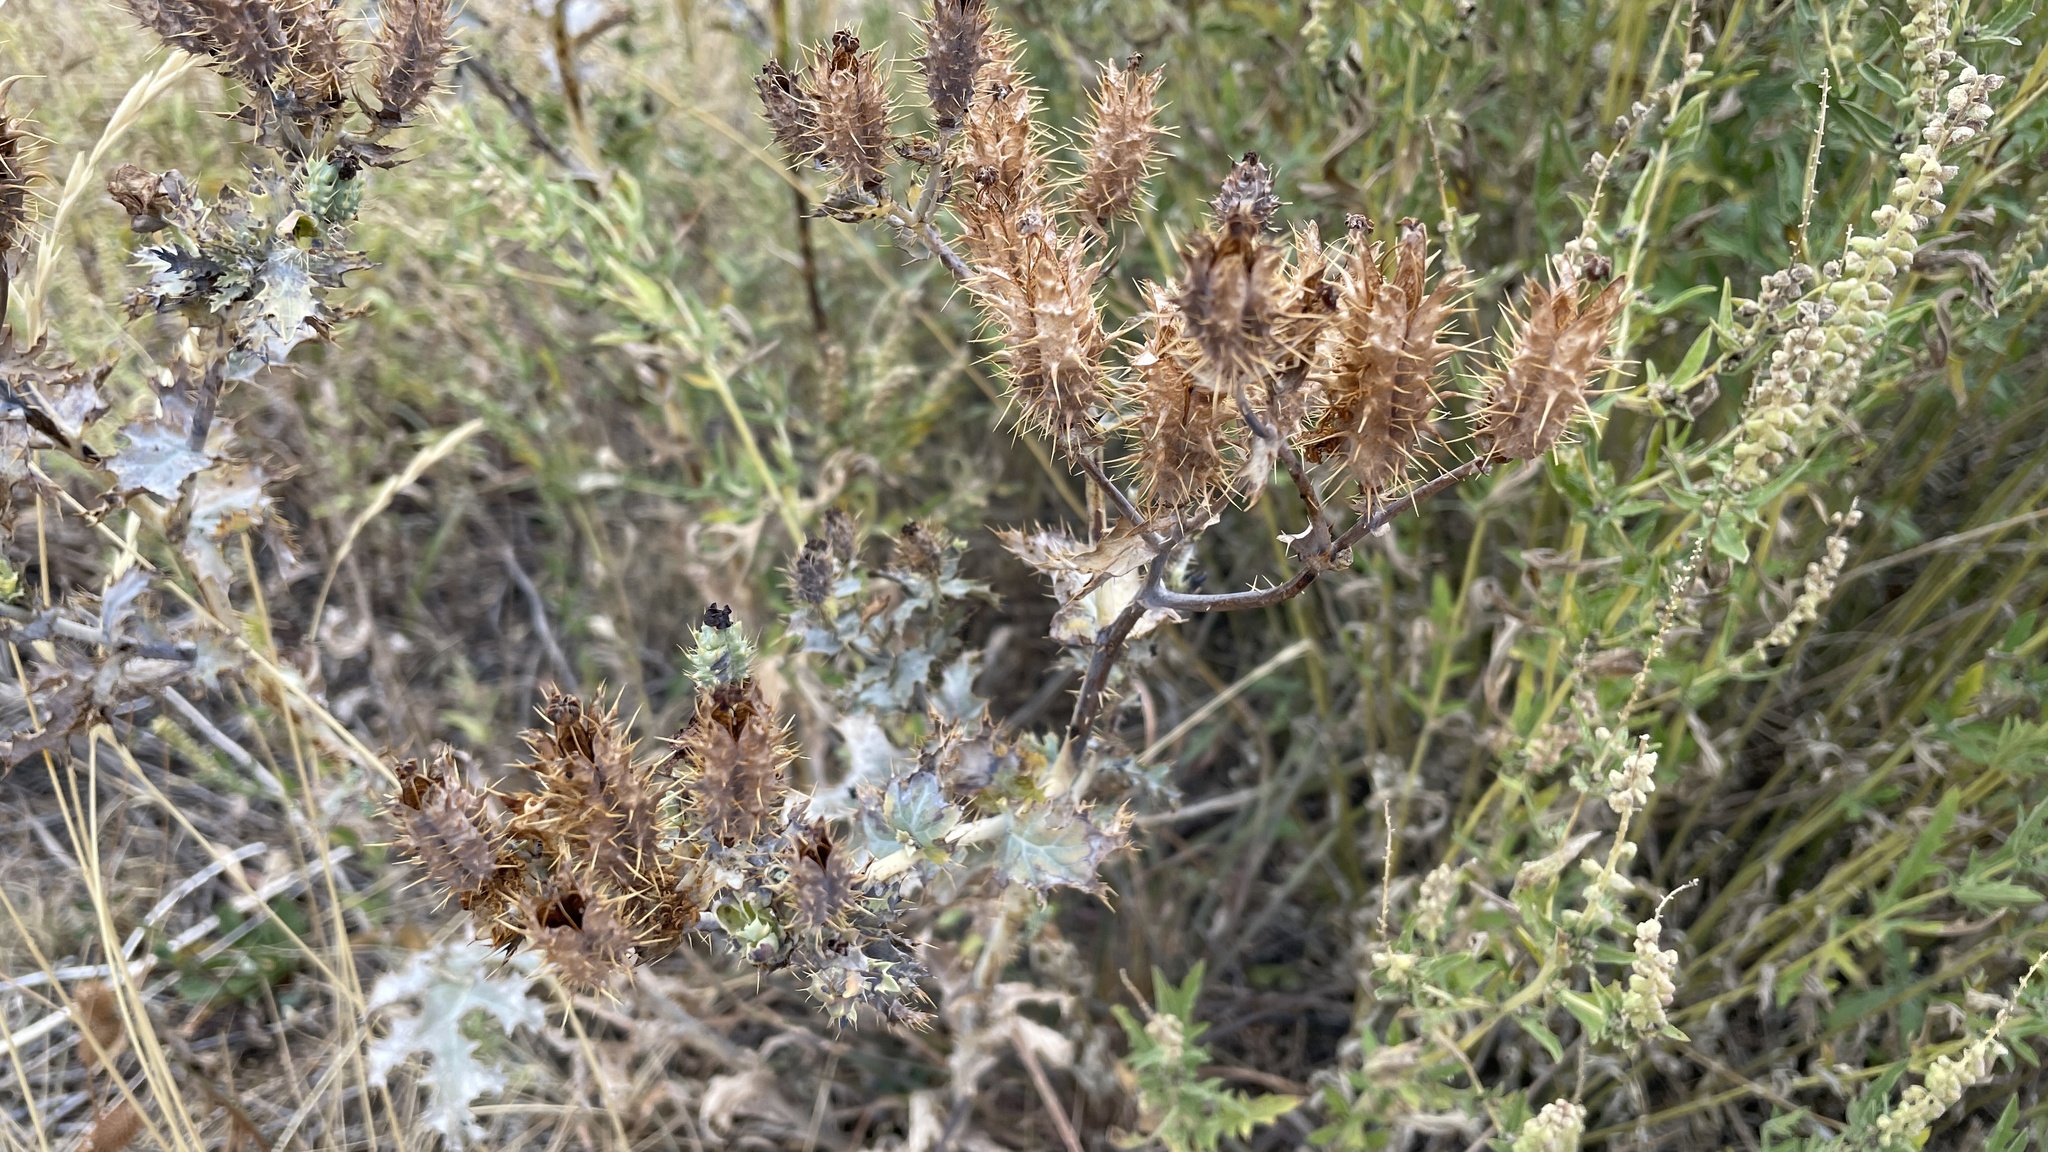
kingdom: Plantae
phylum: Tracheophyta
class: Magnoliopsida
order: Ranunculales
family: Papaveraceae
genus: Argemone
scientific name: Argemone polyanthemos
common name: Plains prickly-poppy
